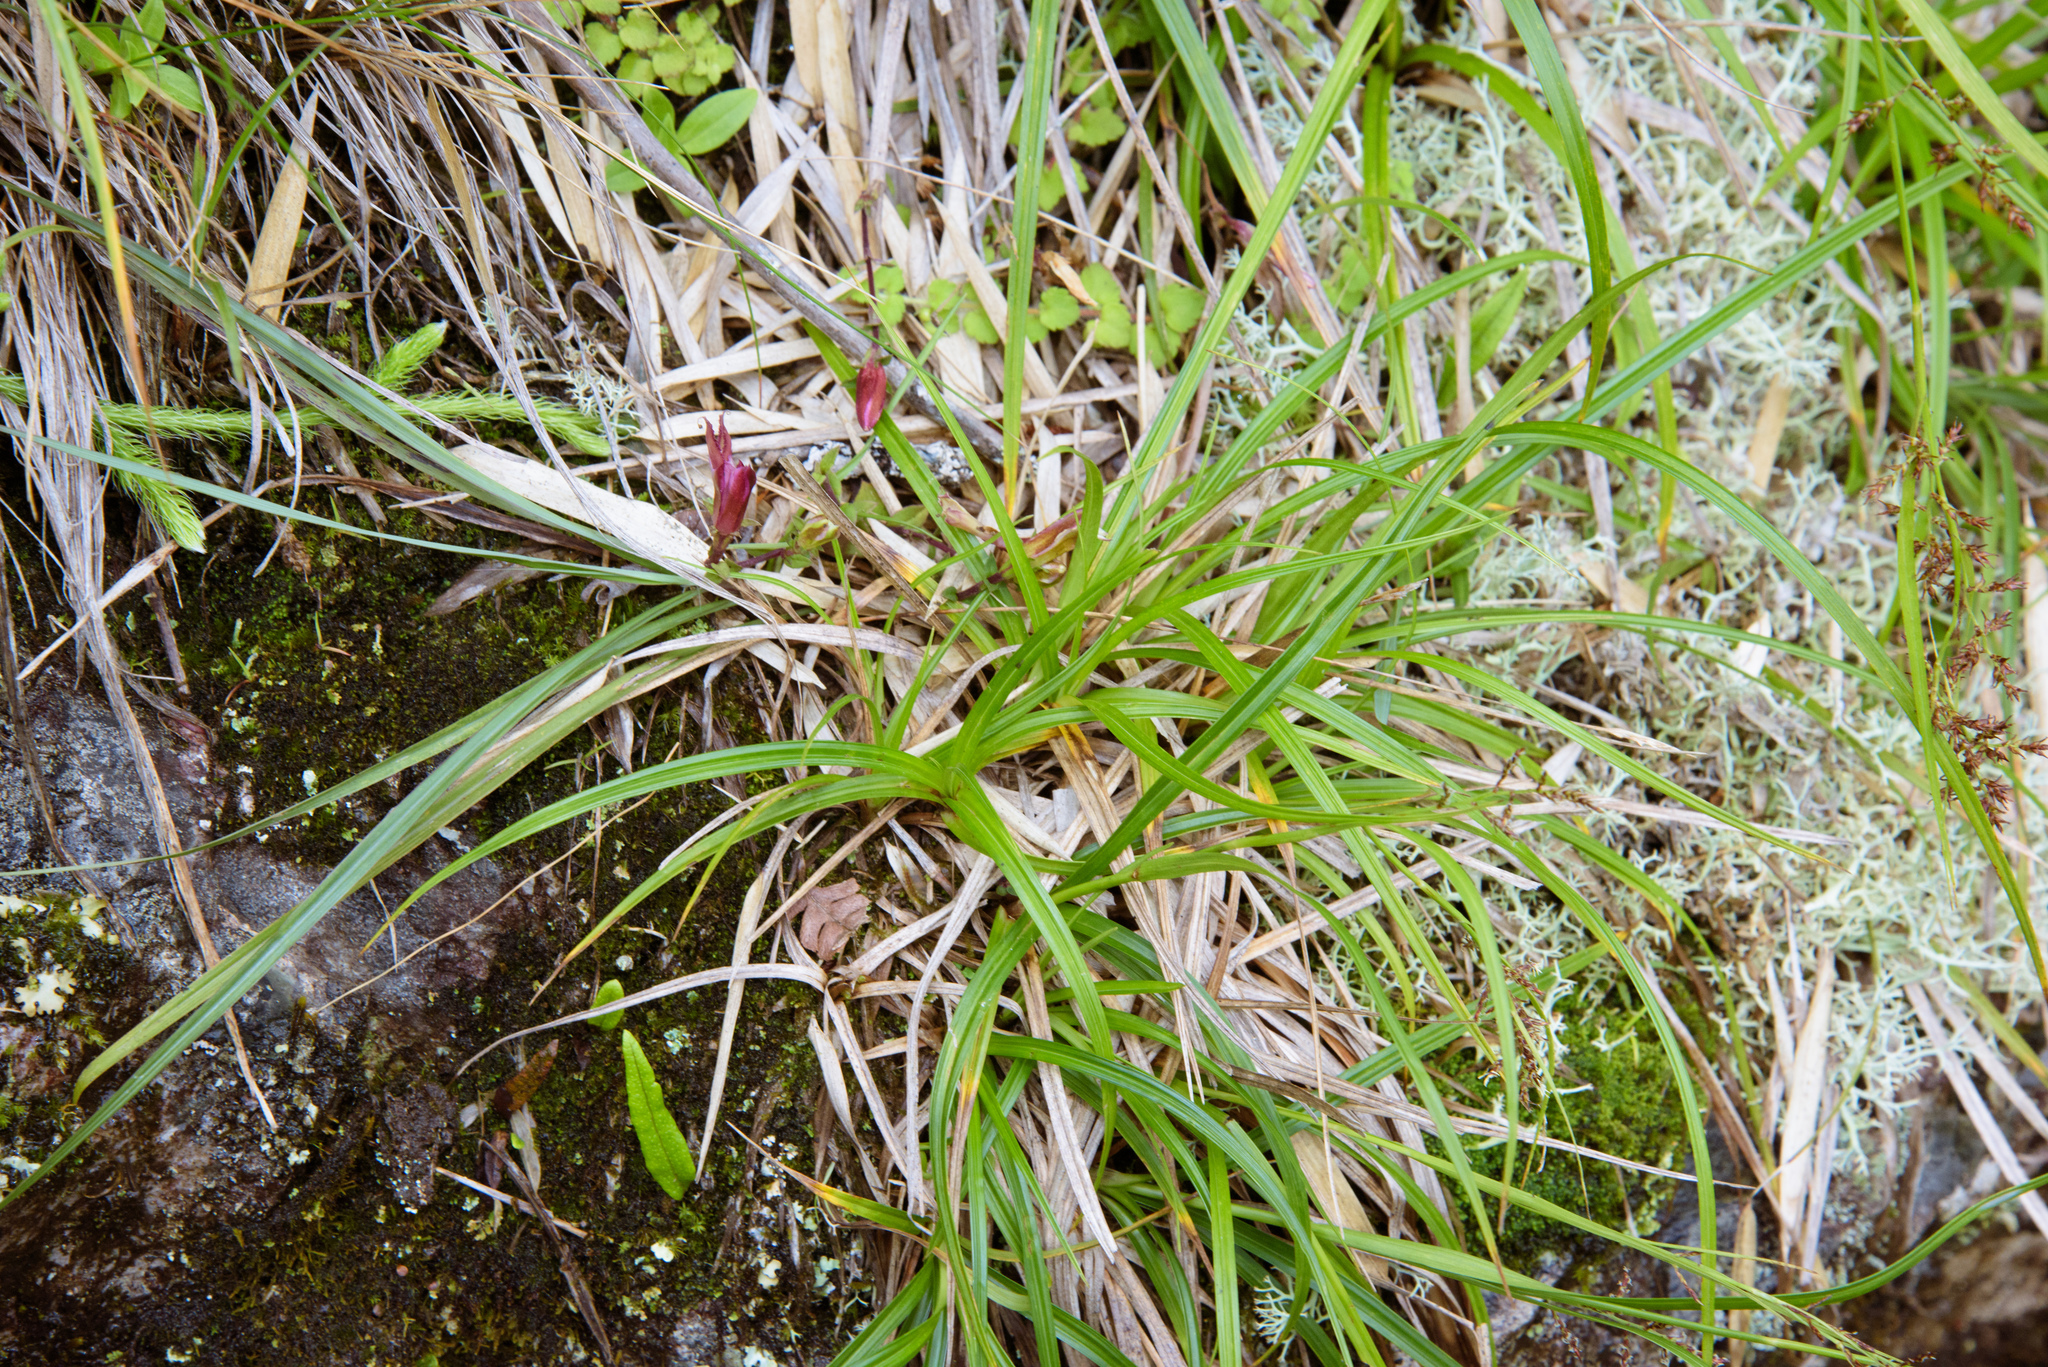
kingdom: Plantae
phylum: Tracheophyta
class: Liliopsida
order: Poales
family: Cyperaceae
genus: Carex
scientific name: Carex filicina
